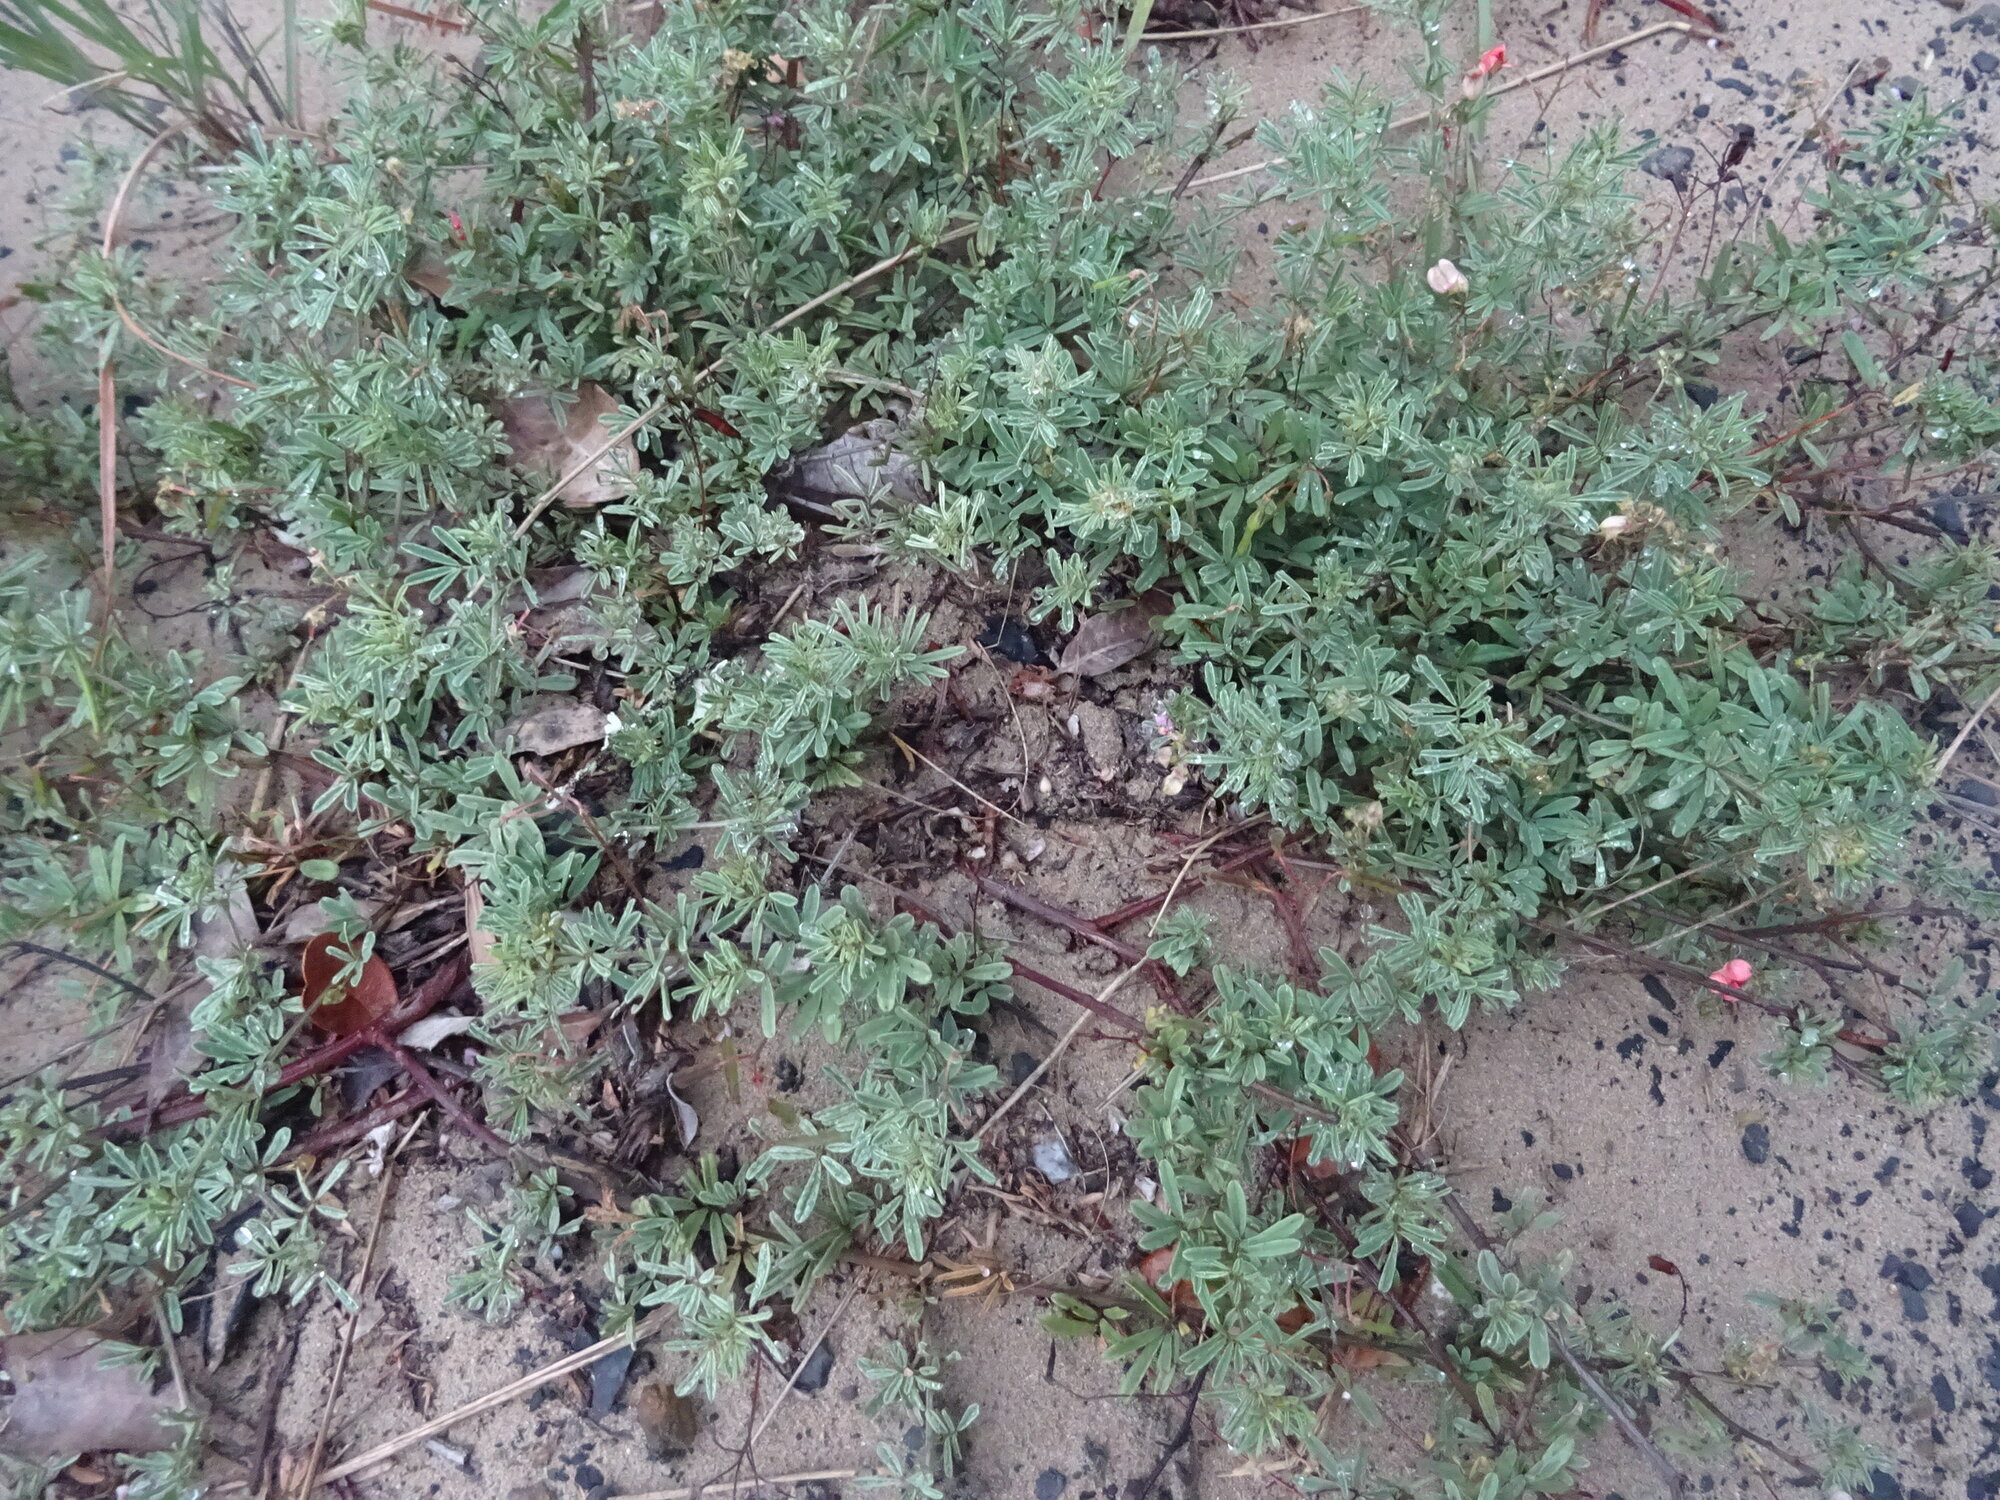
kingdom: Plantae
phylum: Tracheophyta
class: Magnoliopsida
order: Fabales
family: Fabaceae
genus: Indigofera
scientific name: Indigofera verrucosa
